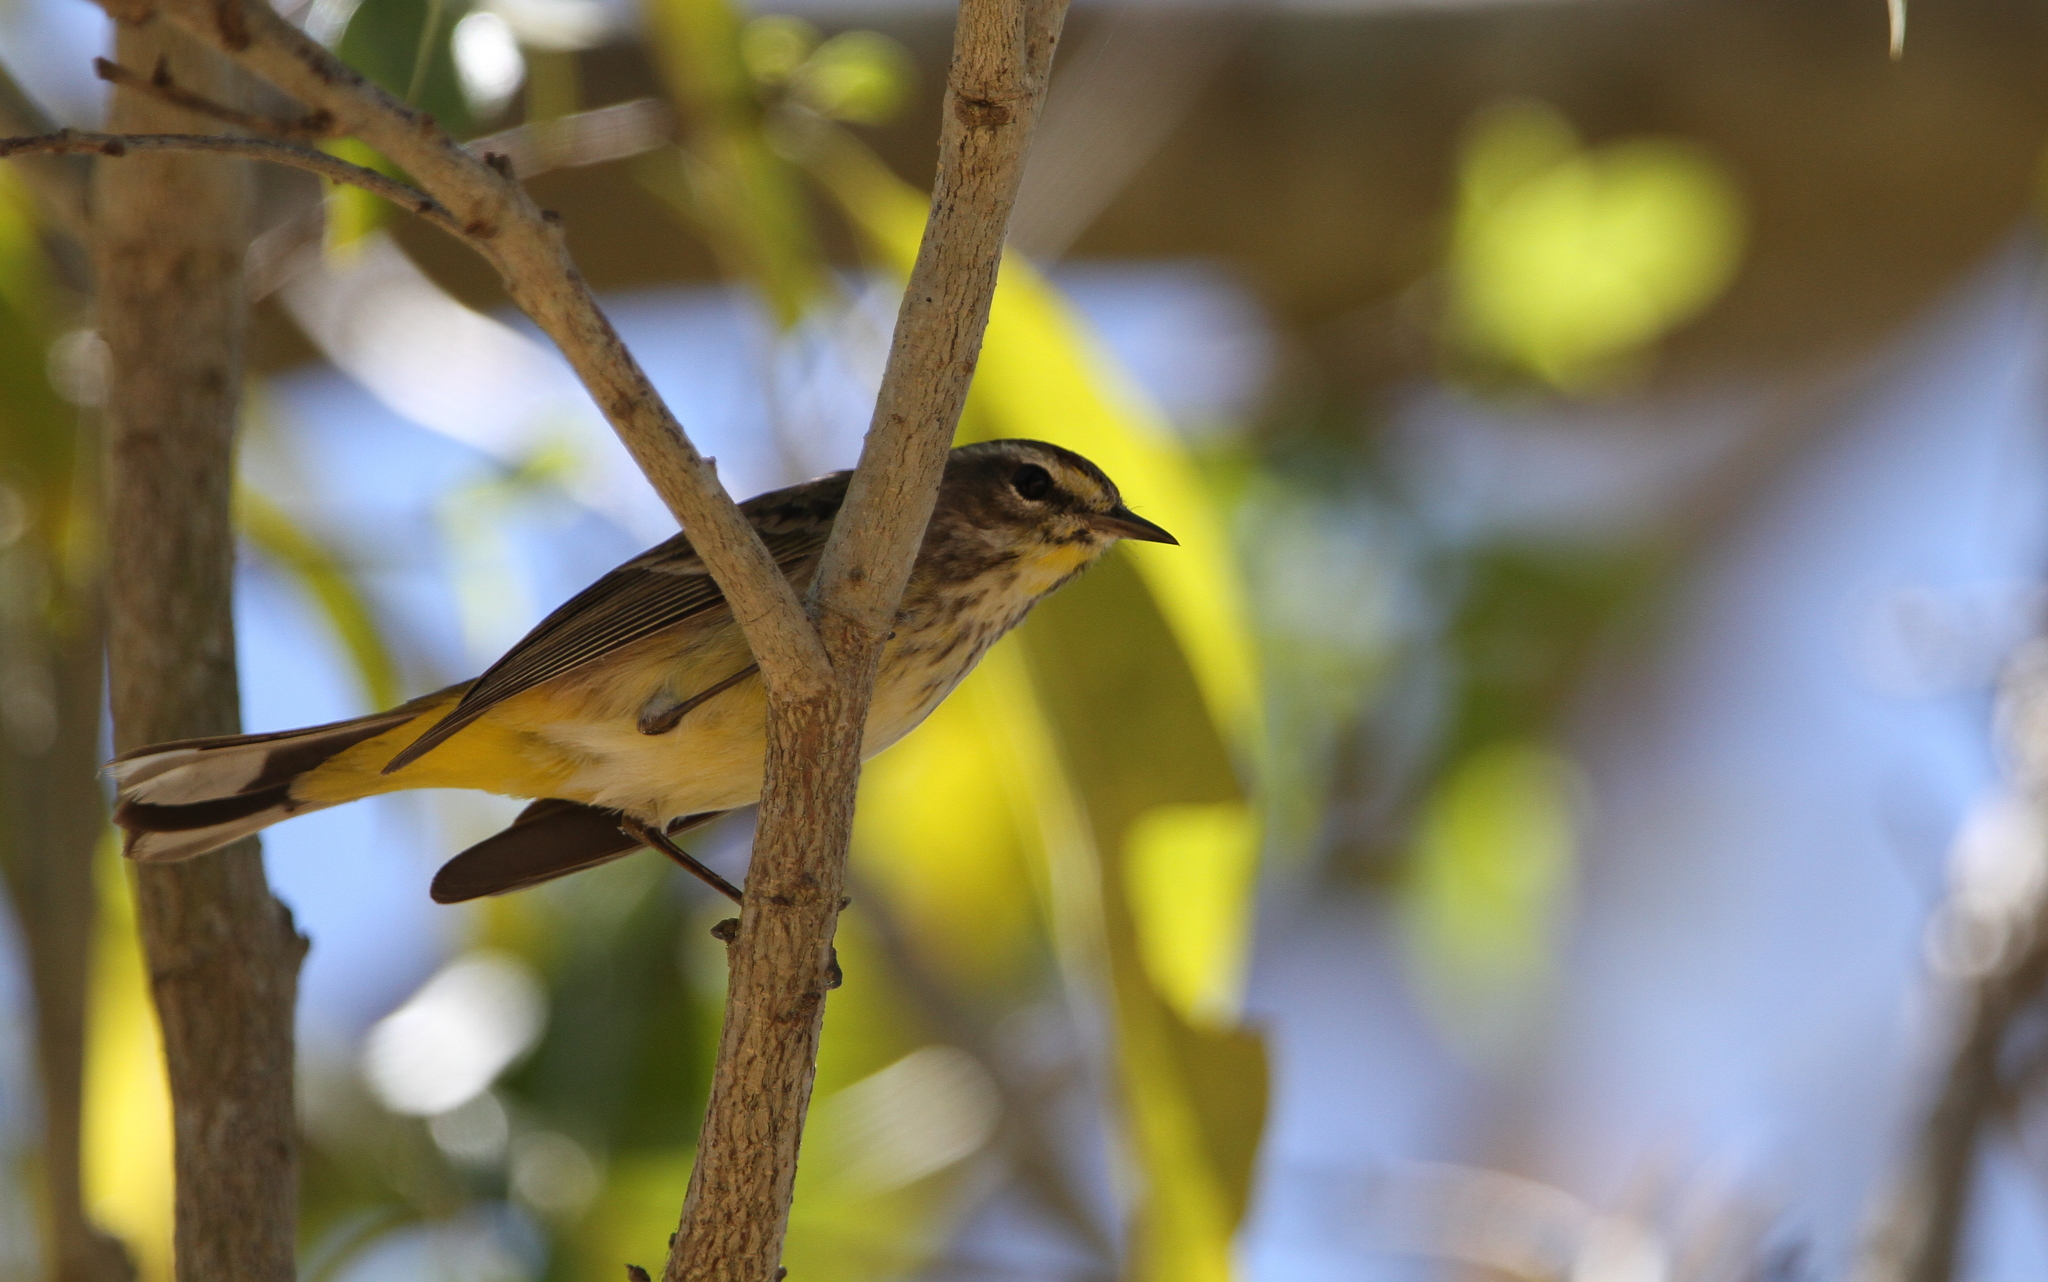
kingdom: Animalia
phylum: Chordata
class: Aves
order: Passeriformes
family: Parulidae
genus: Setophaga
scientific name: Setophaga palmarum
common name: Palm warbler
